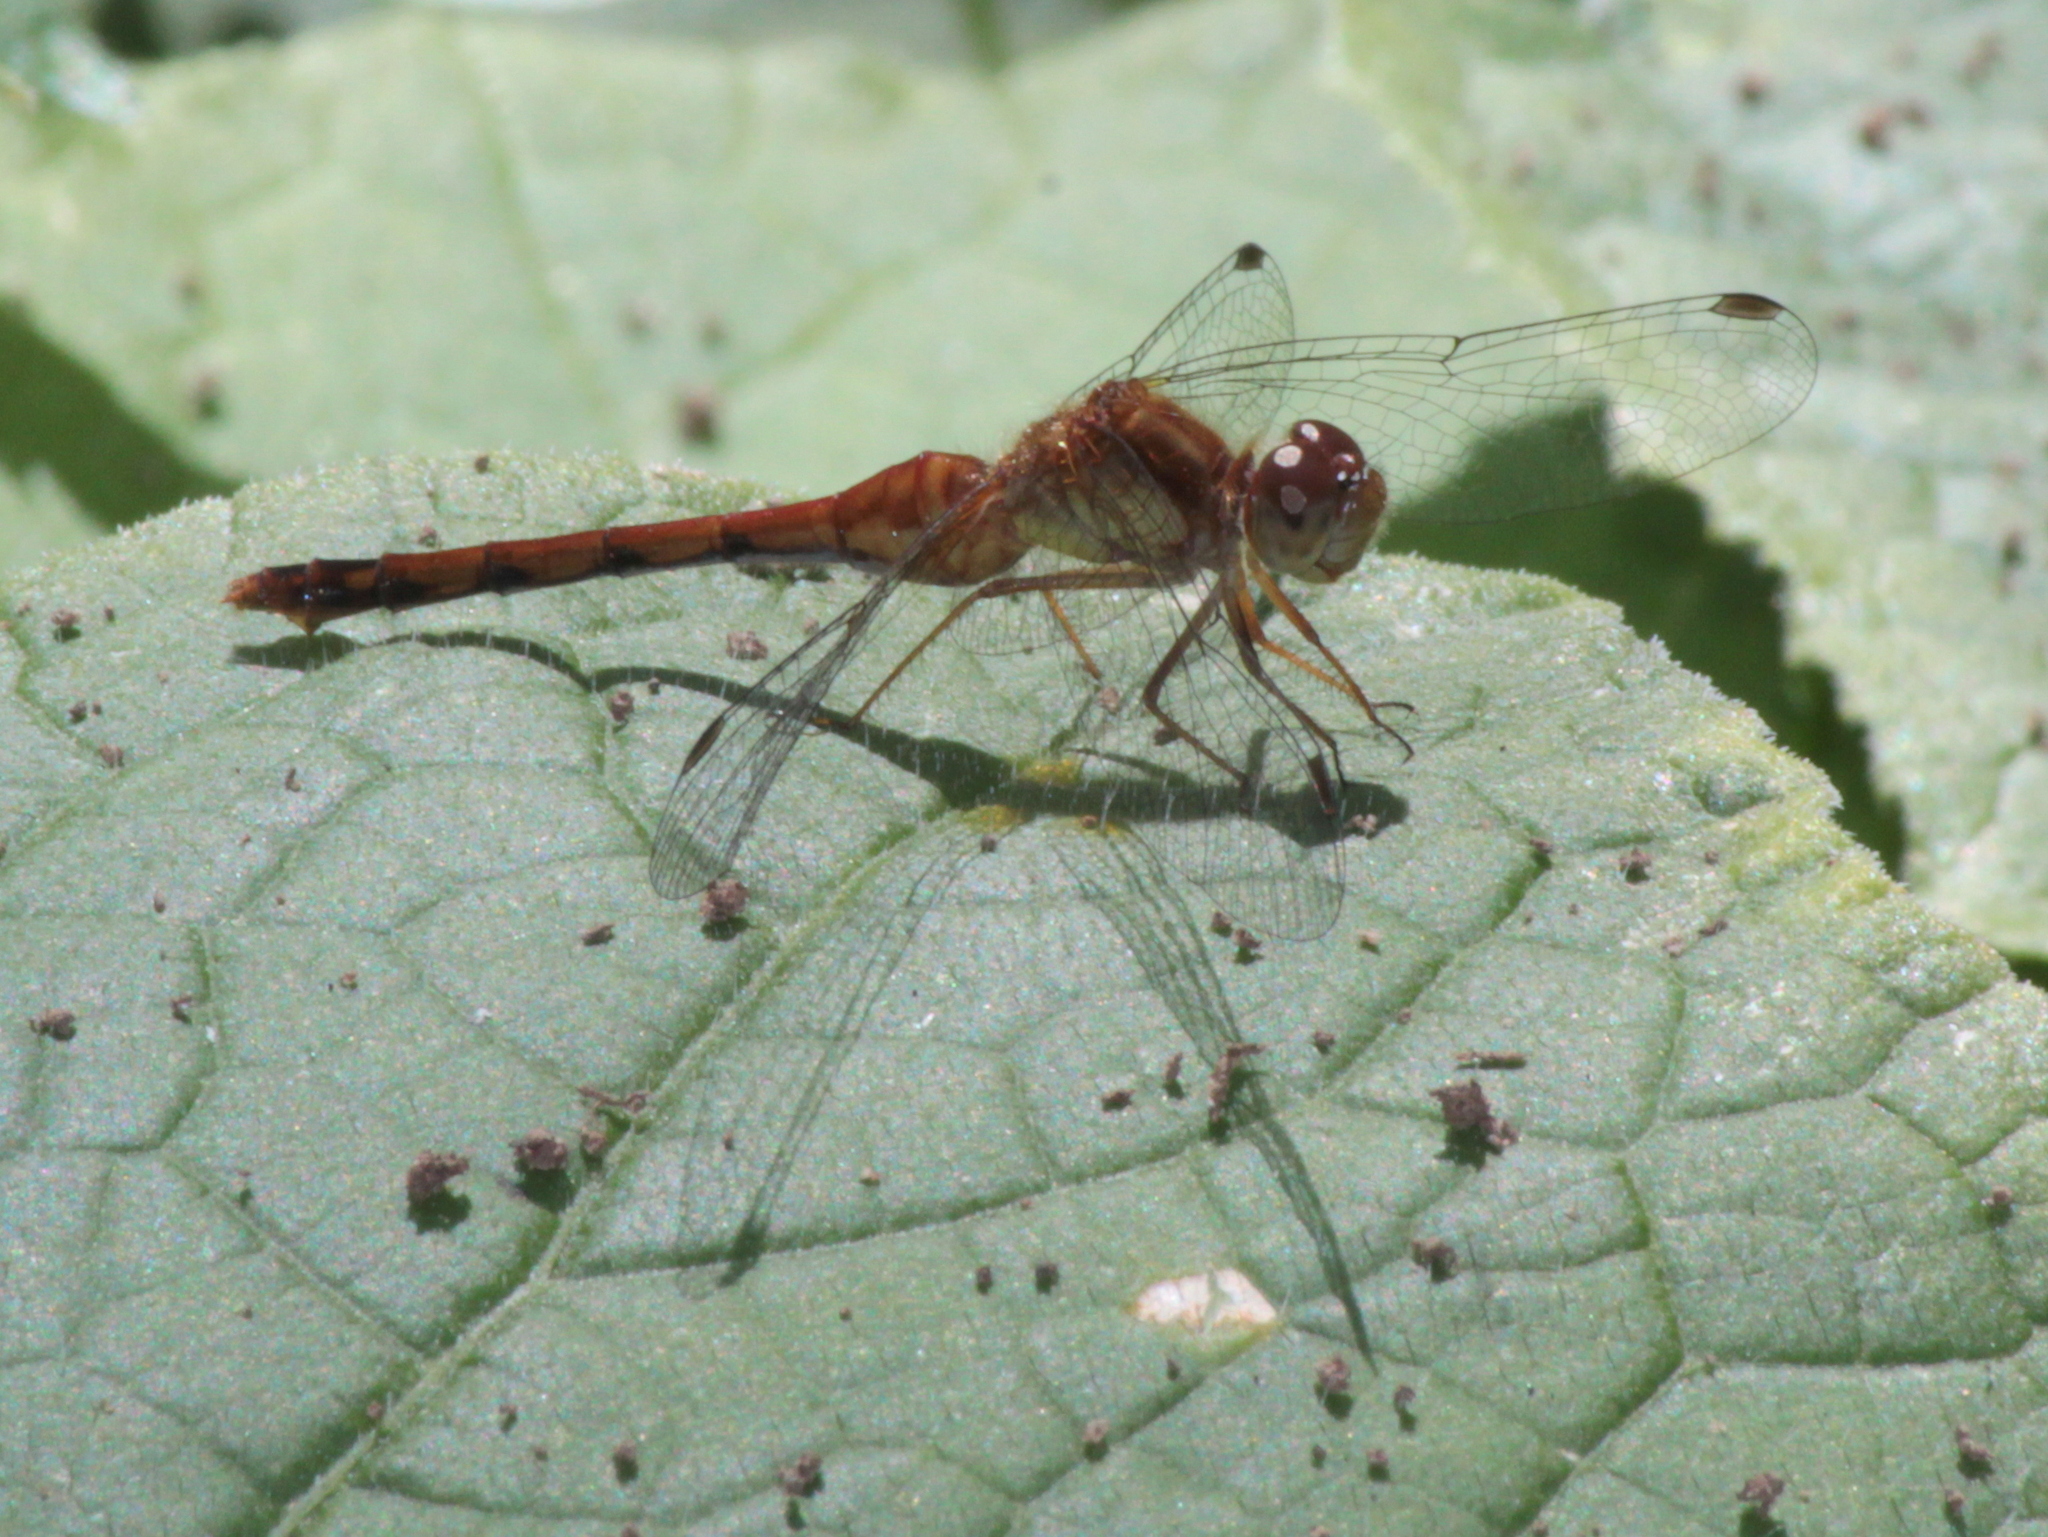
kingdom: Animalia
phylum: Arthropoda
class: Insecta
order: Odonata
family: Libellulidae
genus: Sympetrum
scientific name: Sympetrum vicinum
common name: Autumn meadowhawk
